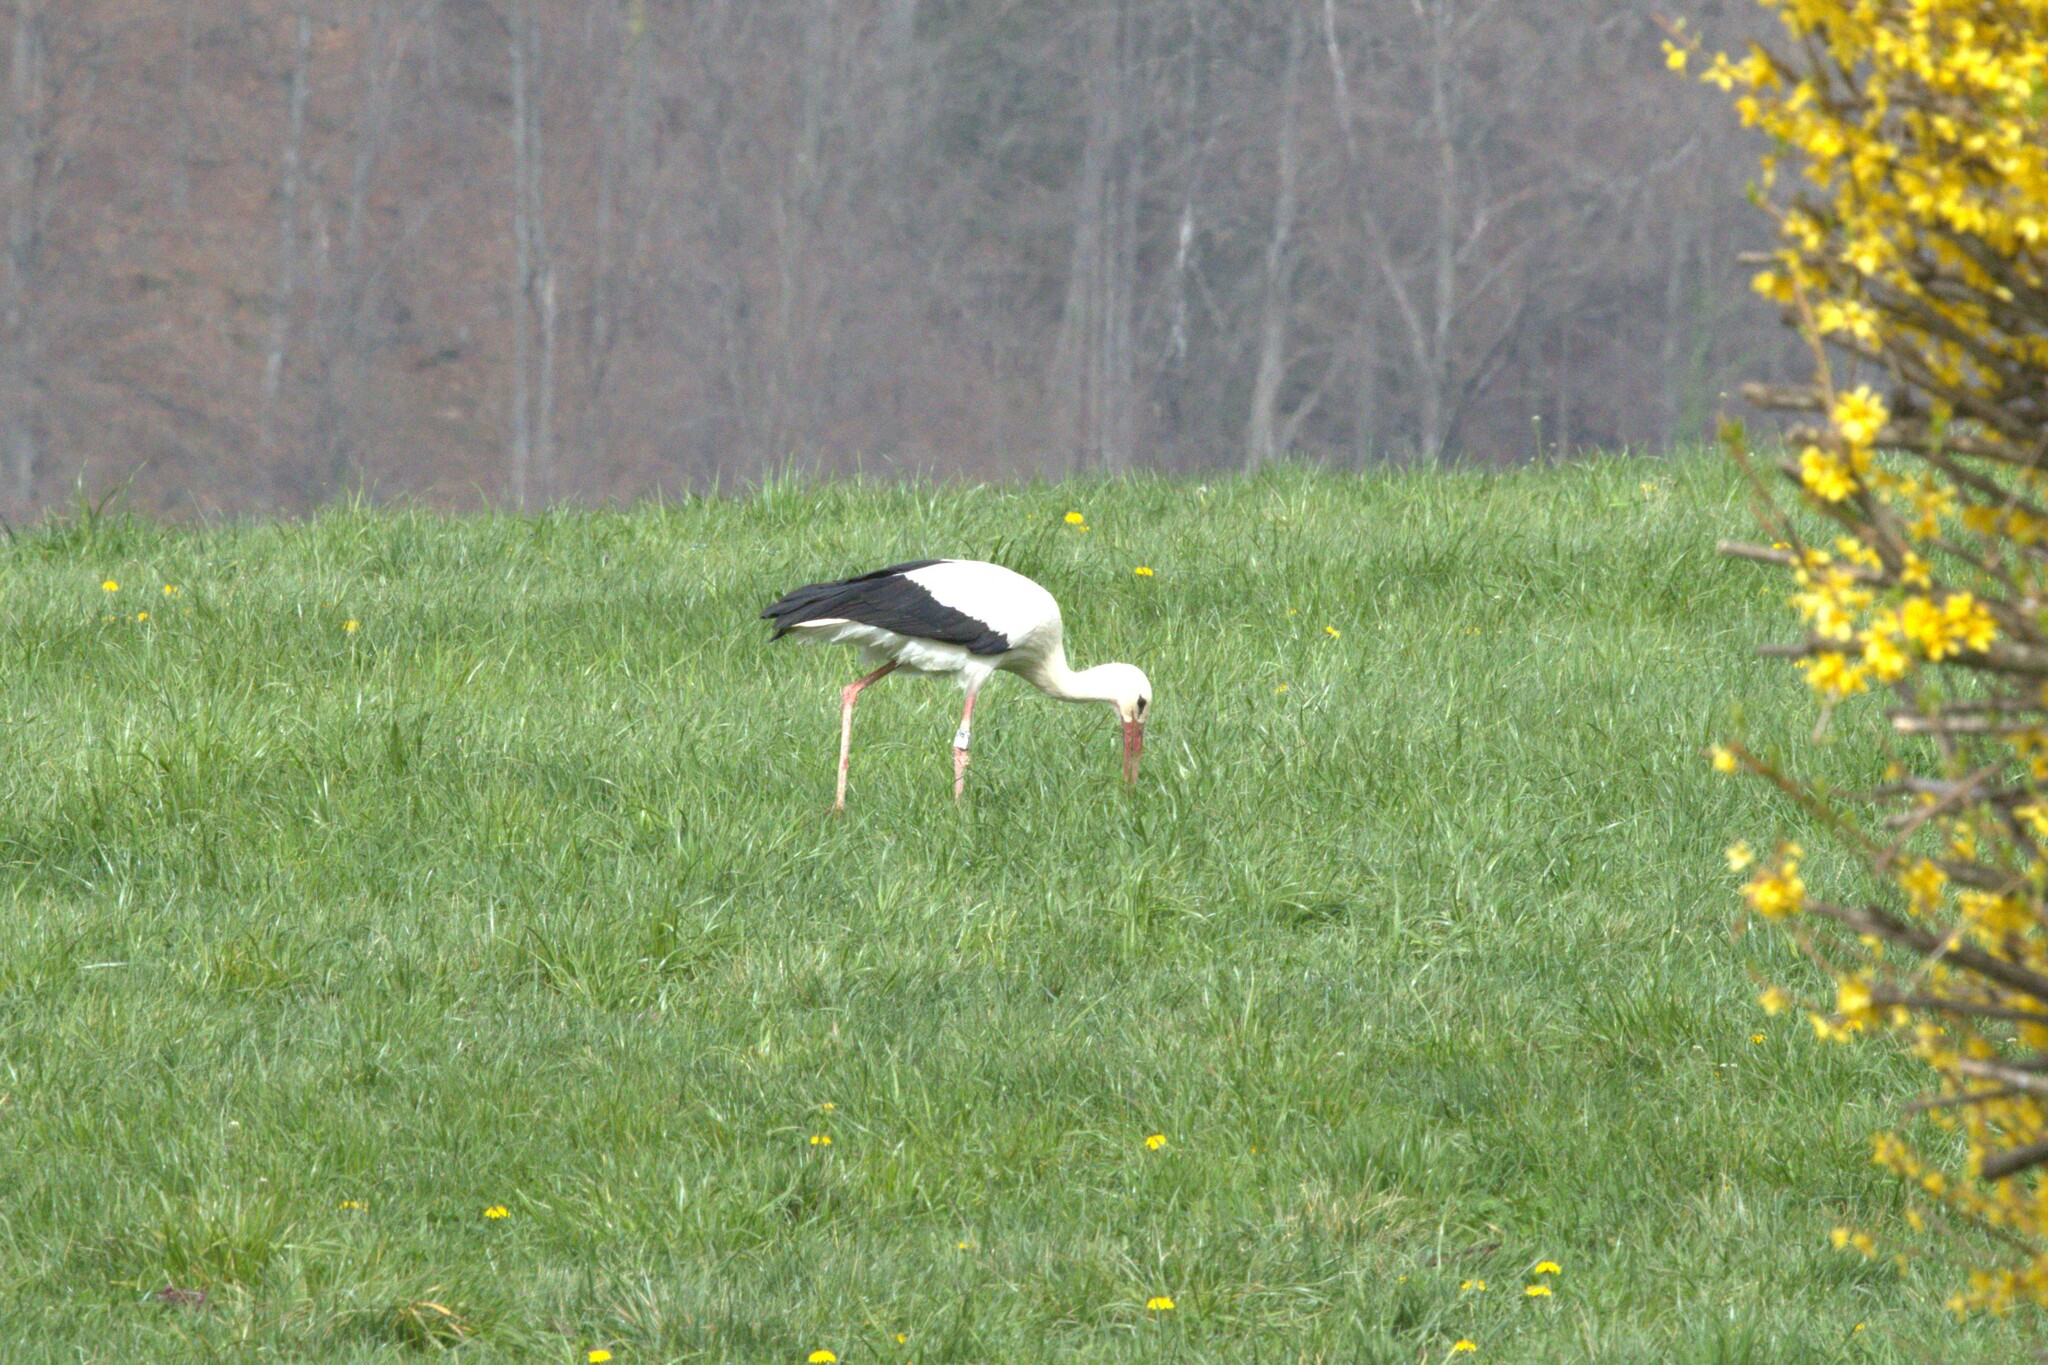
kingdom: Animalia
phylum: Chordata
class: Aves
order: Ciconiiformes
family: Ciconiidae
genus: Ciconia
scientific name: Ciconia ciconia
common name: White stork
